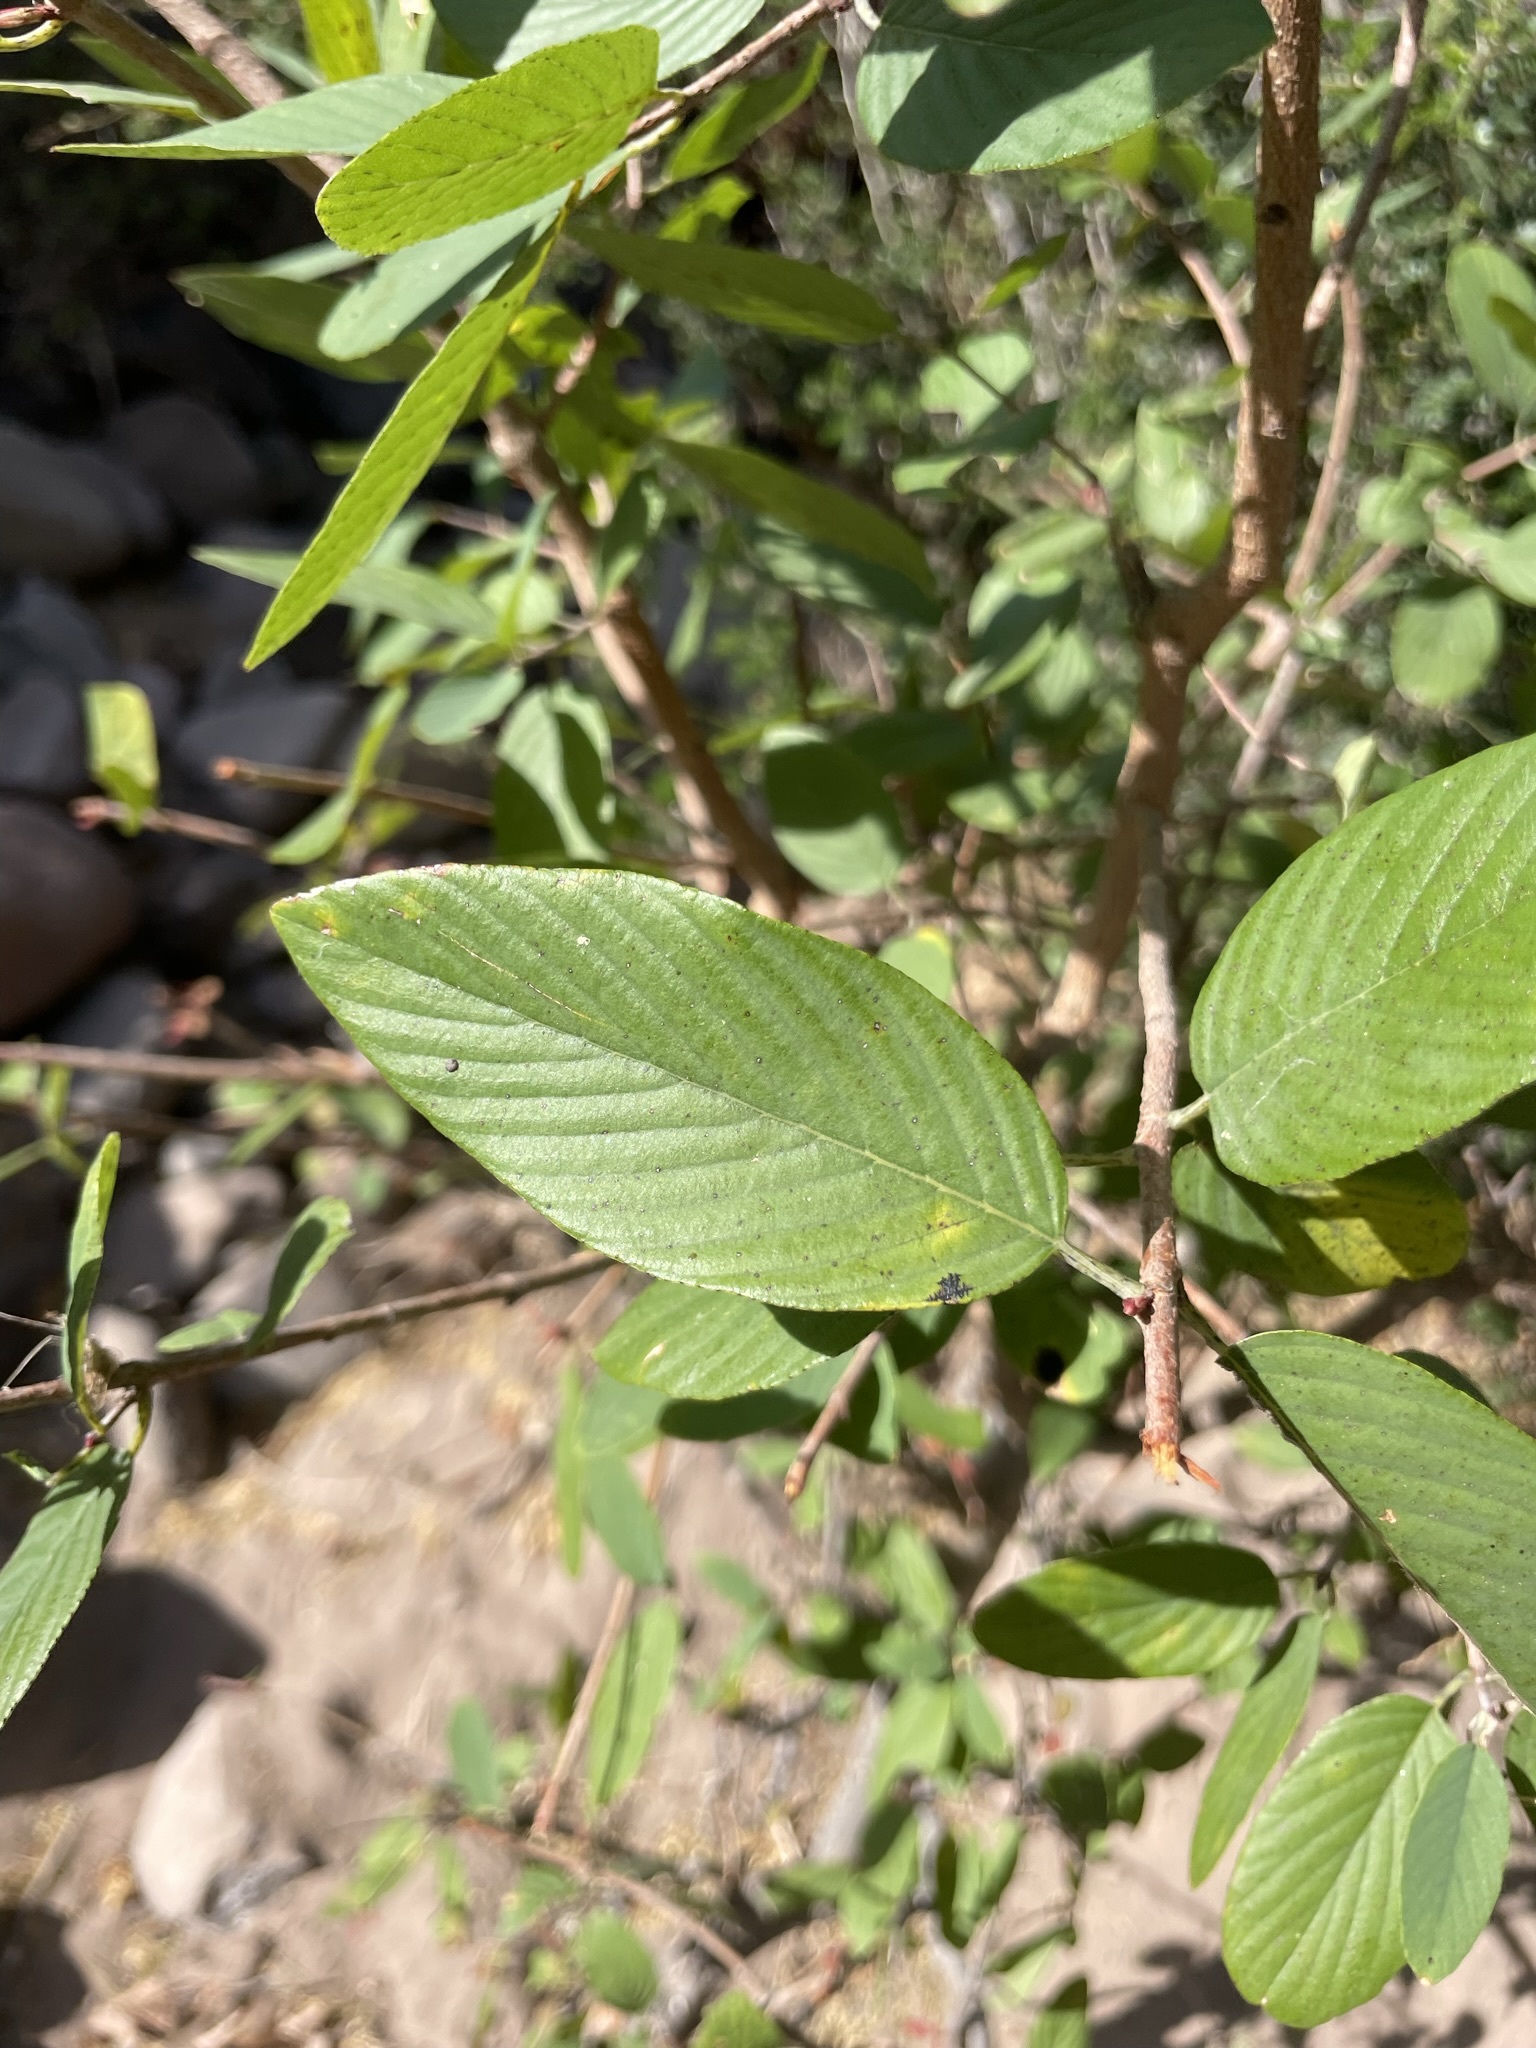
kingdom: Plantae
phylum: Tracheophyta
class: Magnoliopsida
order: Rosales
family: Rhamnaceae
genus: Karwinskia
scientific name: Karwinskia humboldtiana
